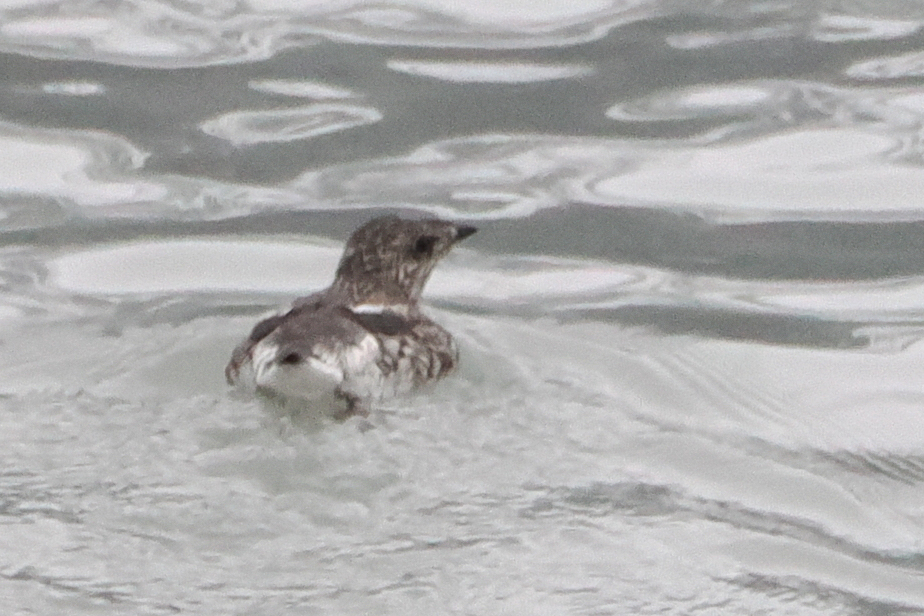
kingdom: Animalia
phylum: Chordata
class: Aves
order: Charadriiformes
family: Alcidae
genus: Brachyramphus
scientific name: Brachyramphus brevirostris
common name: Kittlitz's murrelet
